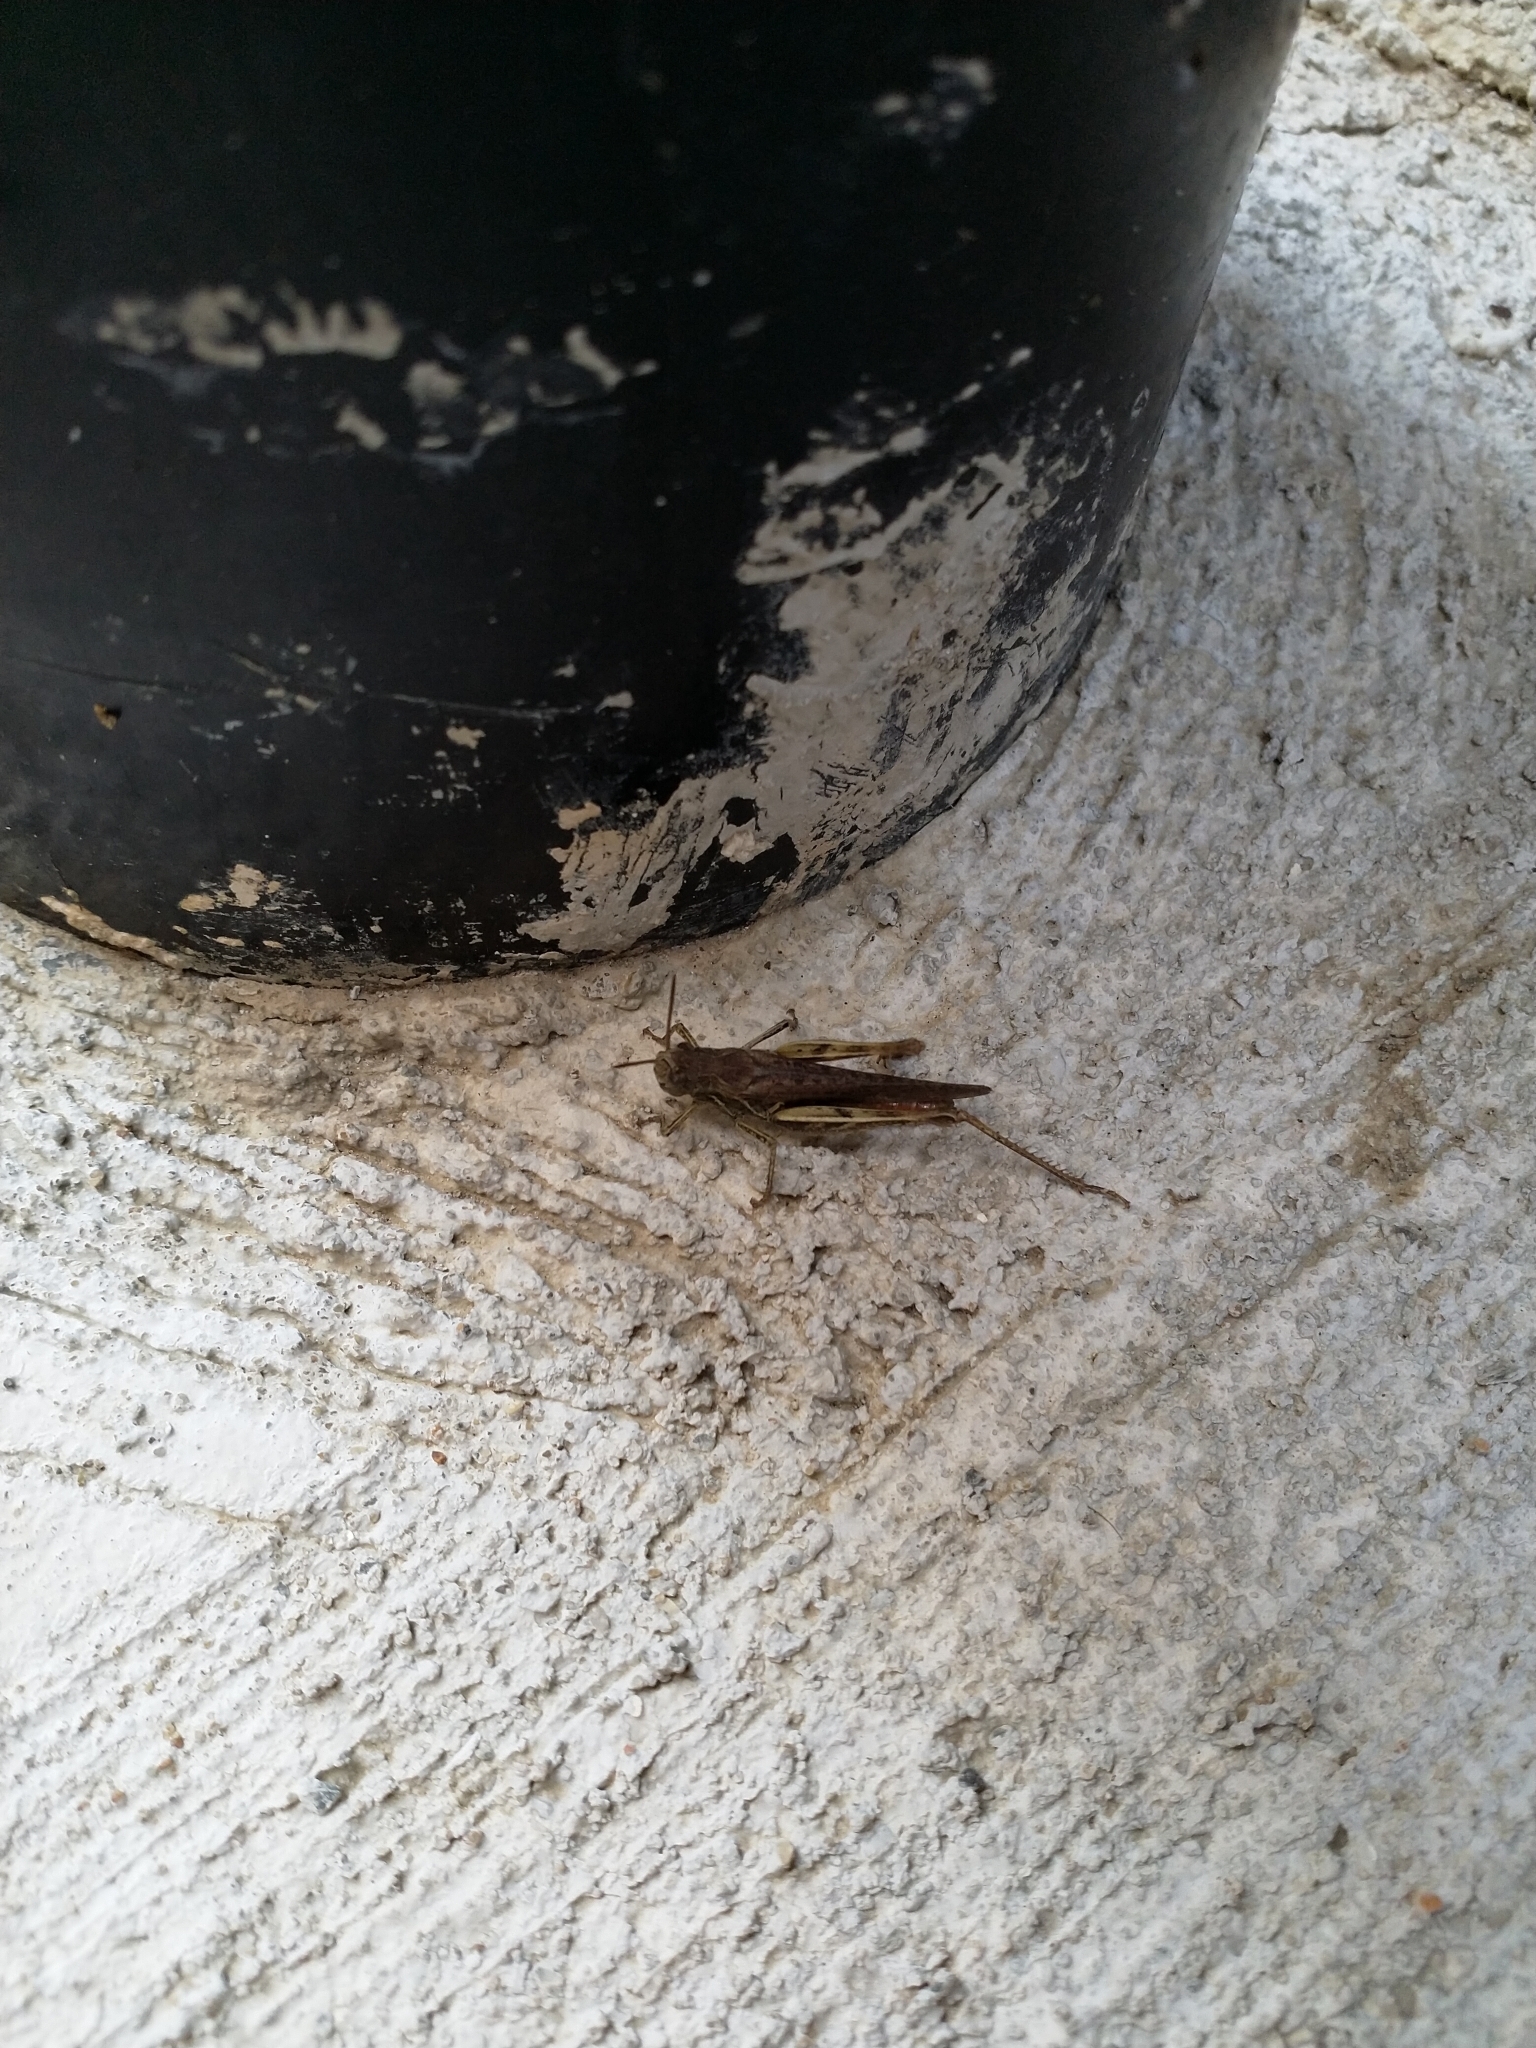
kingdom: Animalia
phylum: Arthropoda
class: Insecta
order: Orthoptera
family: Acrididae
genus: Chorthippus
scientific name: Chorthippus brunneus
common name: Field grasshopper
